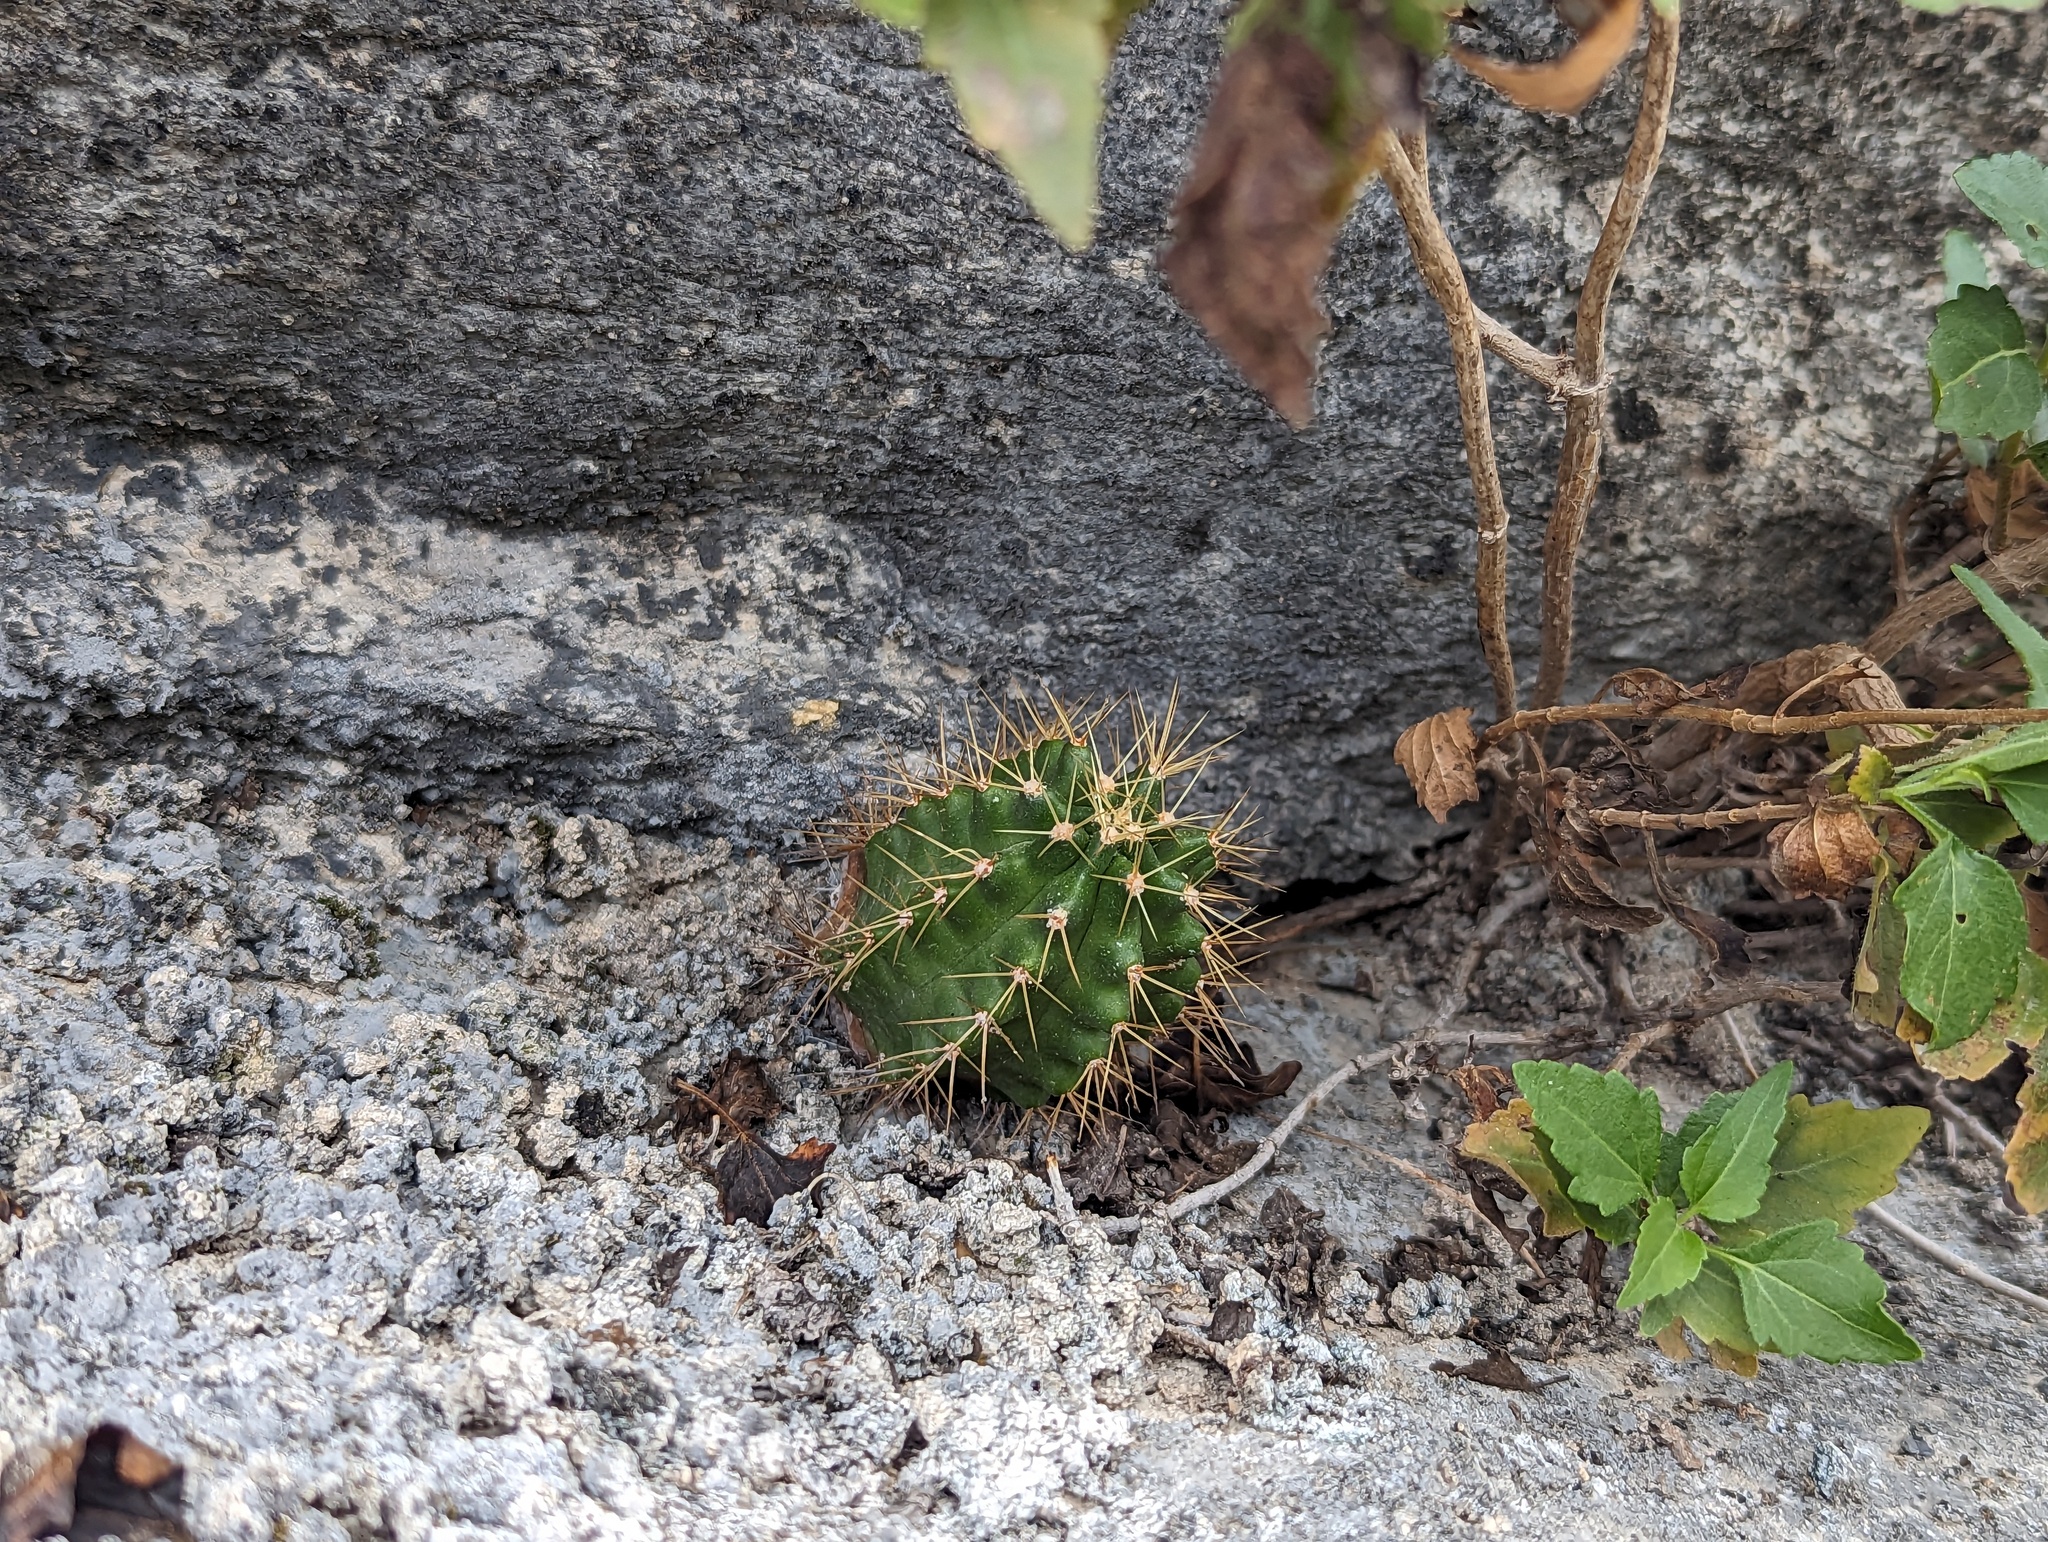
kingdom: Plantae
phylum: Tracheophyta
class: Magnoliopsida
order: Caryophyllales
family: Cactaceae
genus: Echinocereus
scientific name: Echinocereus coccineus
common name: Scarlet hedgehog cactus
